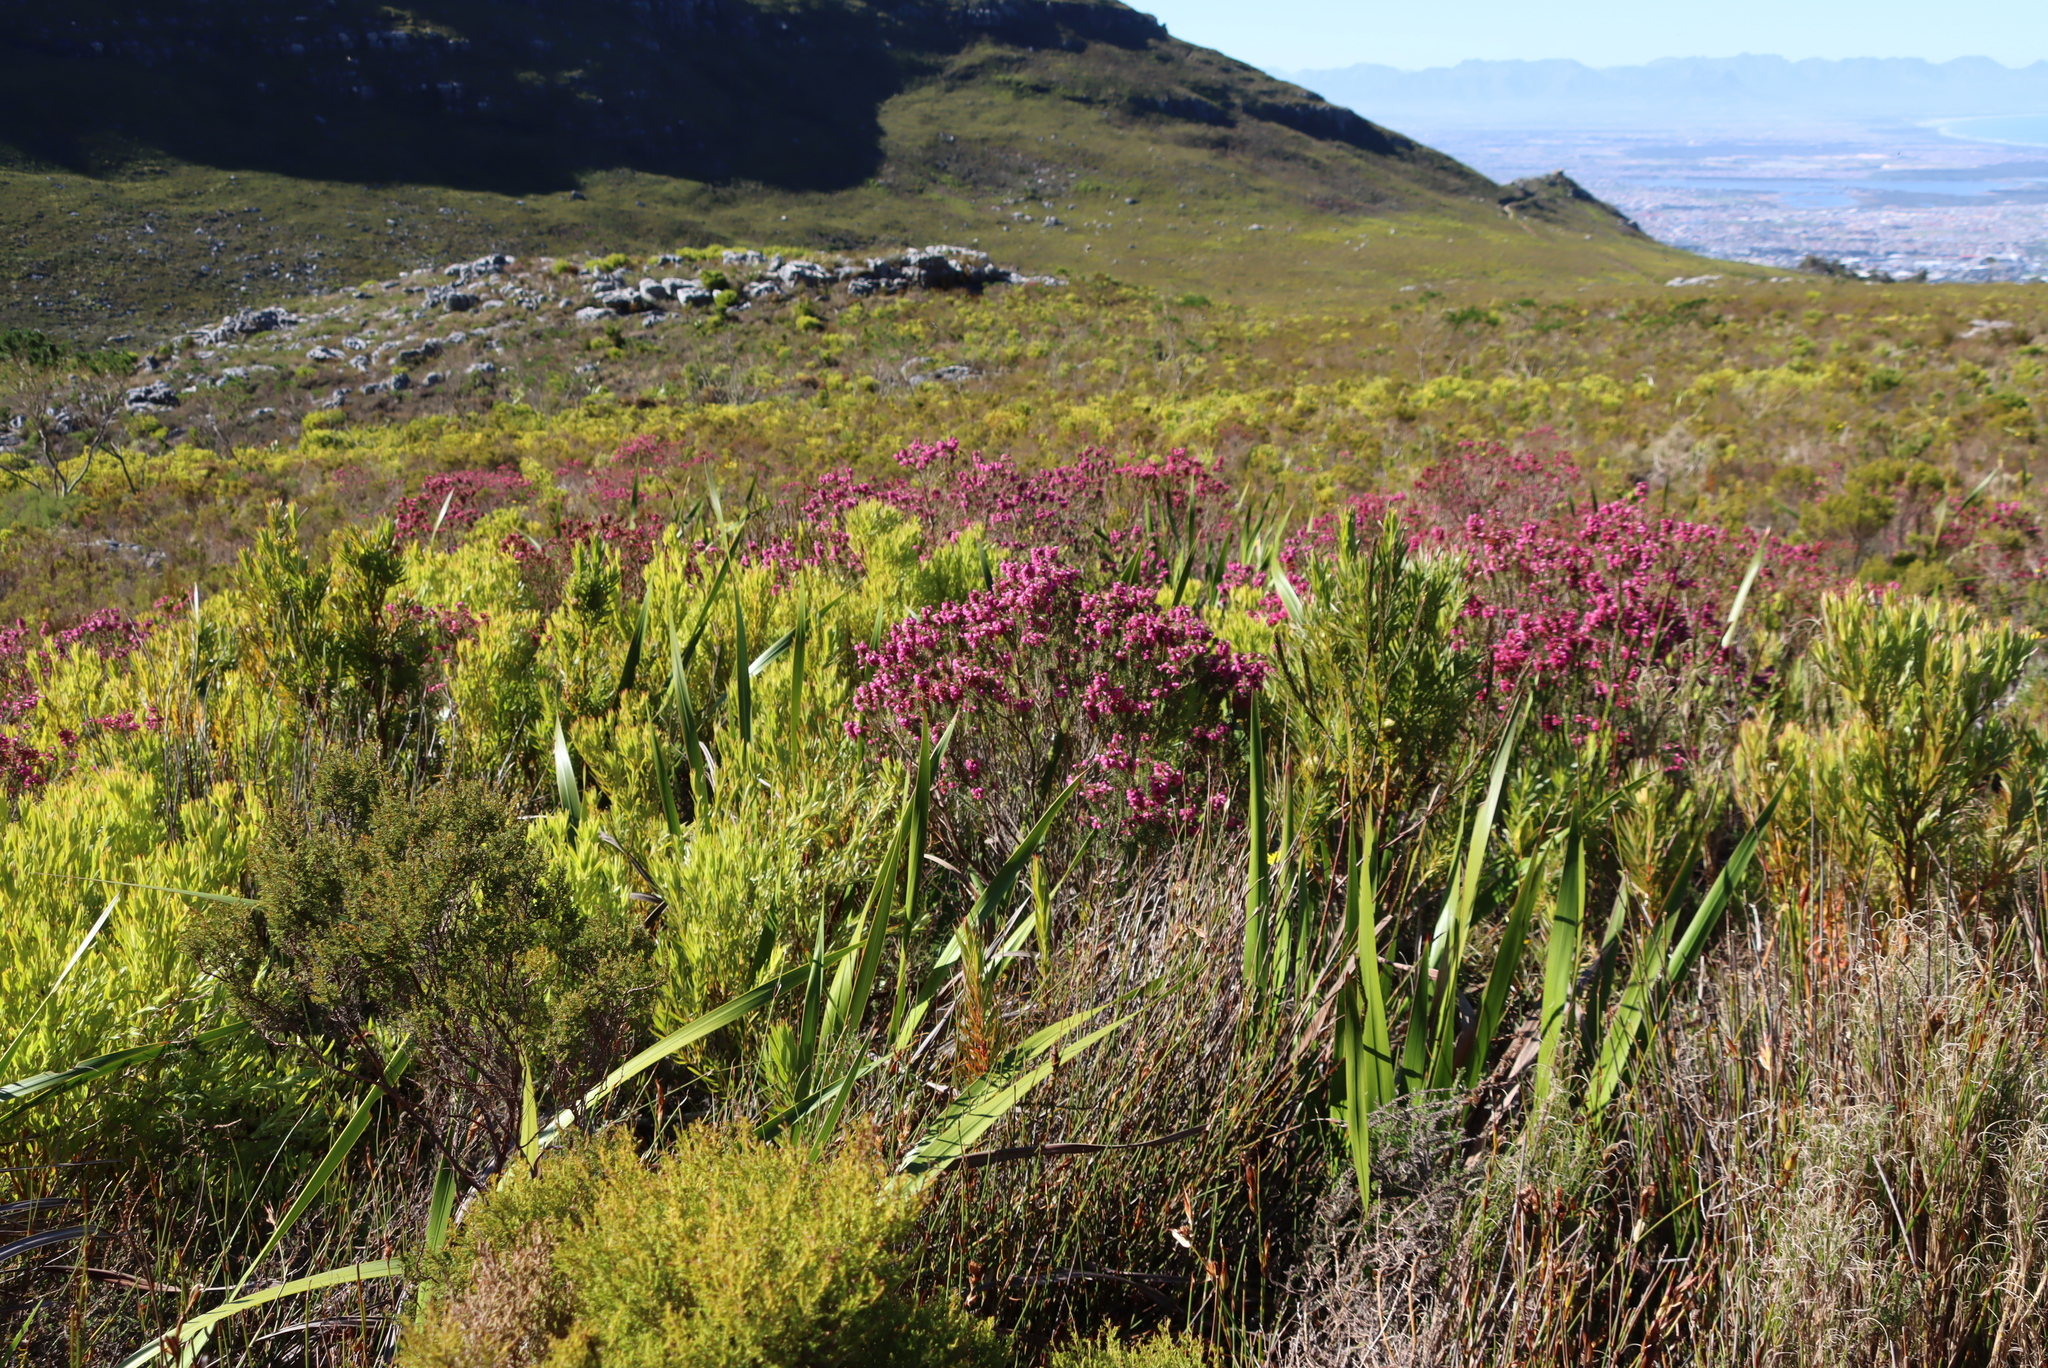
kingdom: Plantae
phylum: Tracheophyta
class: Magnoliopsida
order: Ericales
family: Ericaceae
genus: Erica
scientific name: Erica abietina
